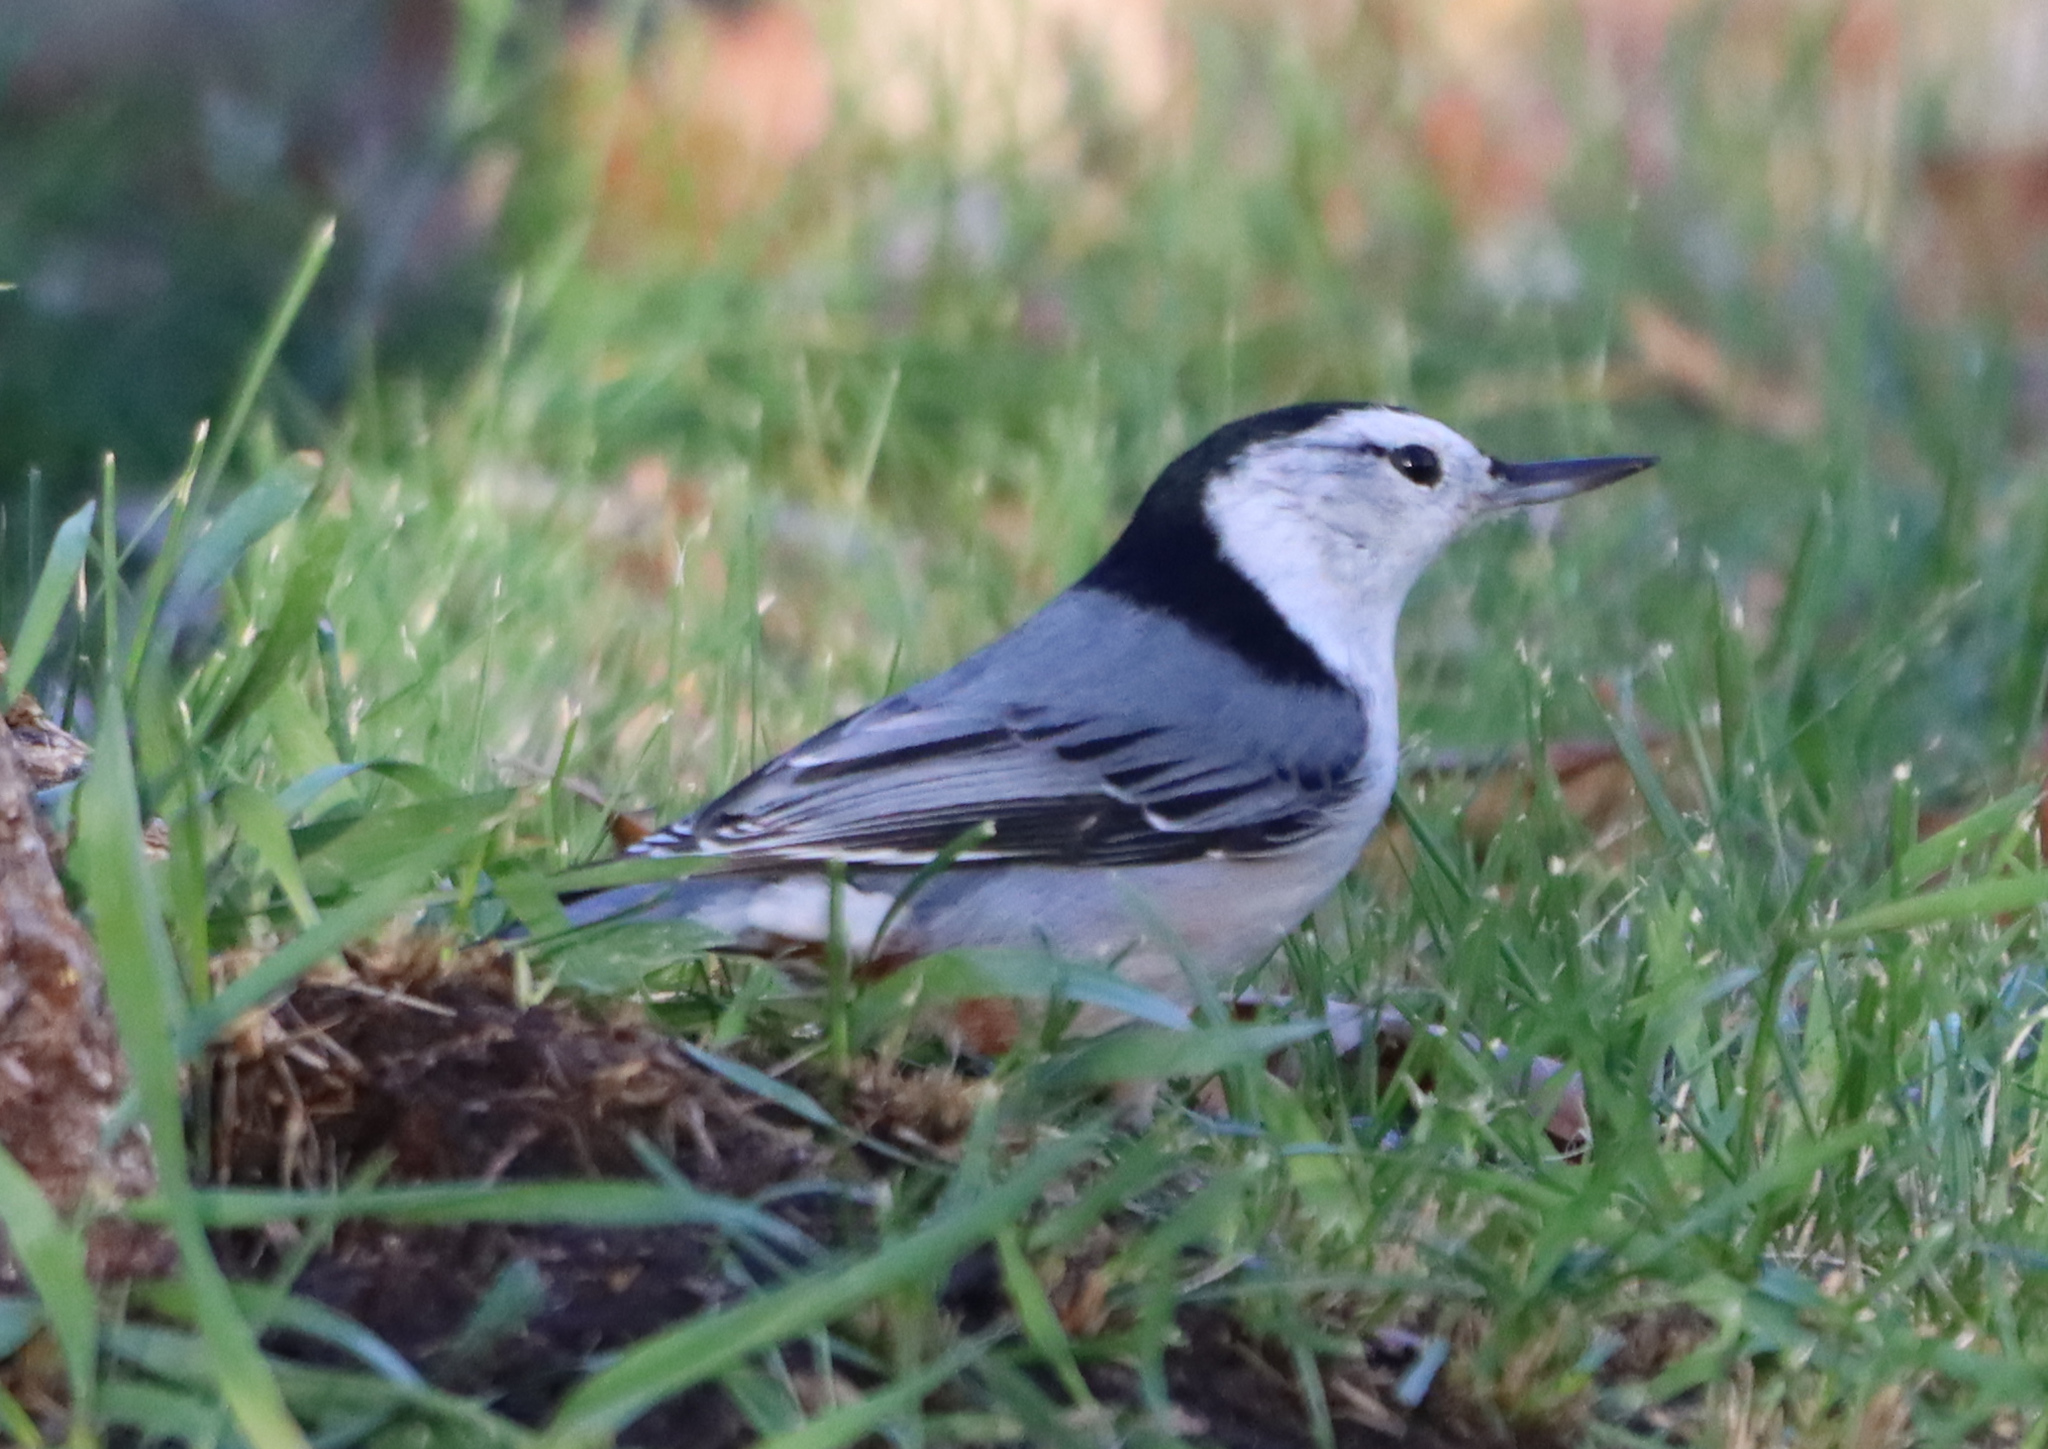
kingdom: Animalia
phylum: Chordata
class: Aves
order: Passeriformes
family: Sittidae
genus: Sitta
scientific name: Sitta carolinensis
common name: White-breasted nuthatch
